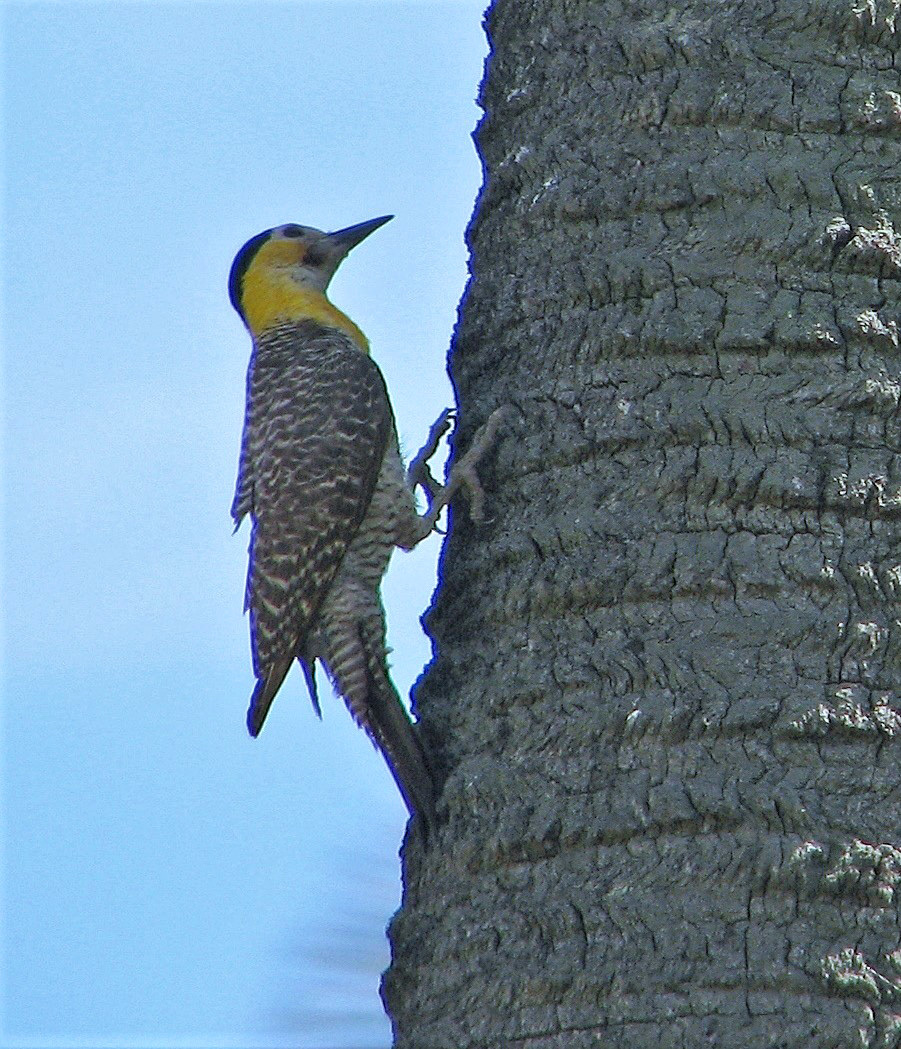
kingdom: Animalia
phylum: Chordata
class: Aves
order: Piciformes
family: Picidae
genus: Colaptes
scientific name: Colaptes campestris
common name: Campo flicker
